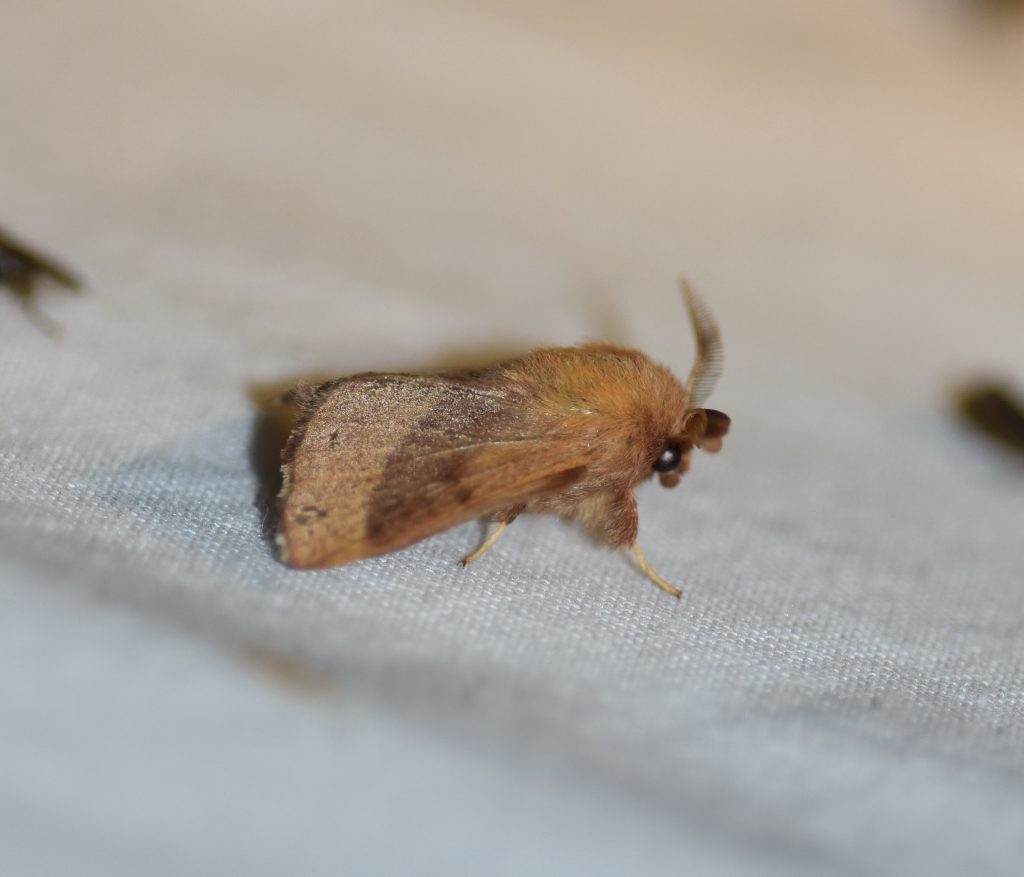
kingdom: Animalia
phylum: Arthropoda
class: Insecta
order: Lepidoptera
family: Lasiocampidae
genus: Malacosoma
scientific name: Malacosoma disstria
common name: Forest tent caterpillar
